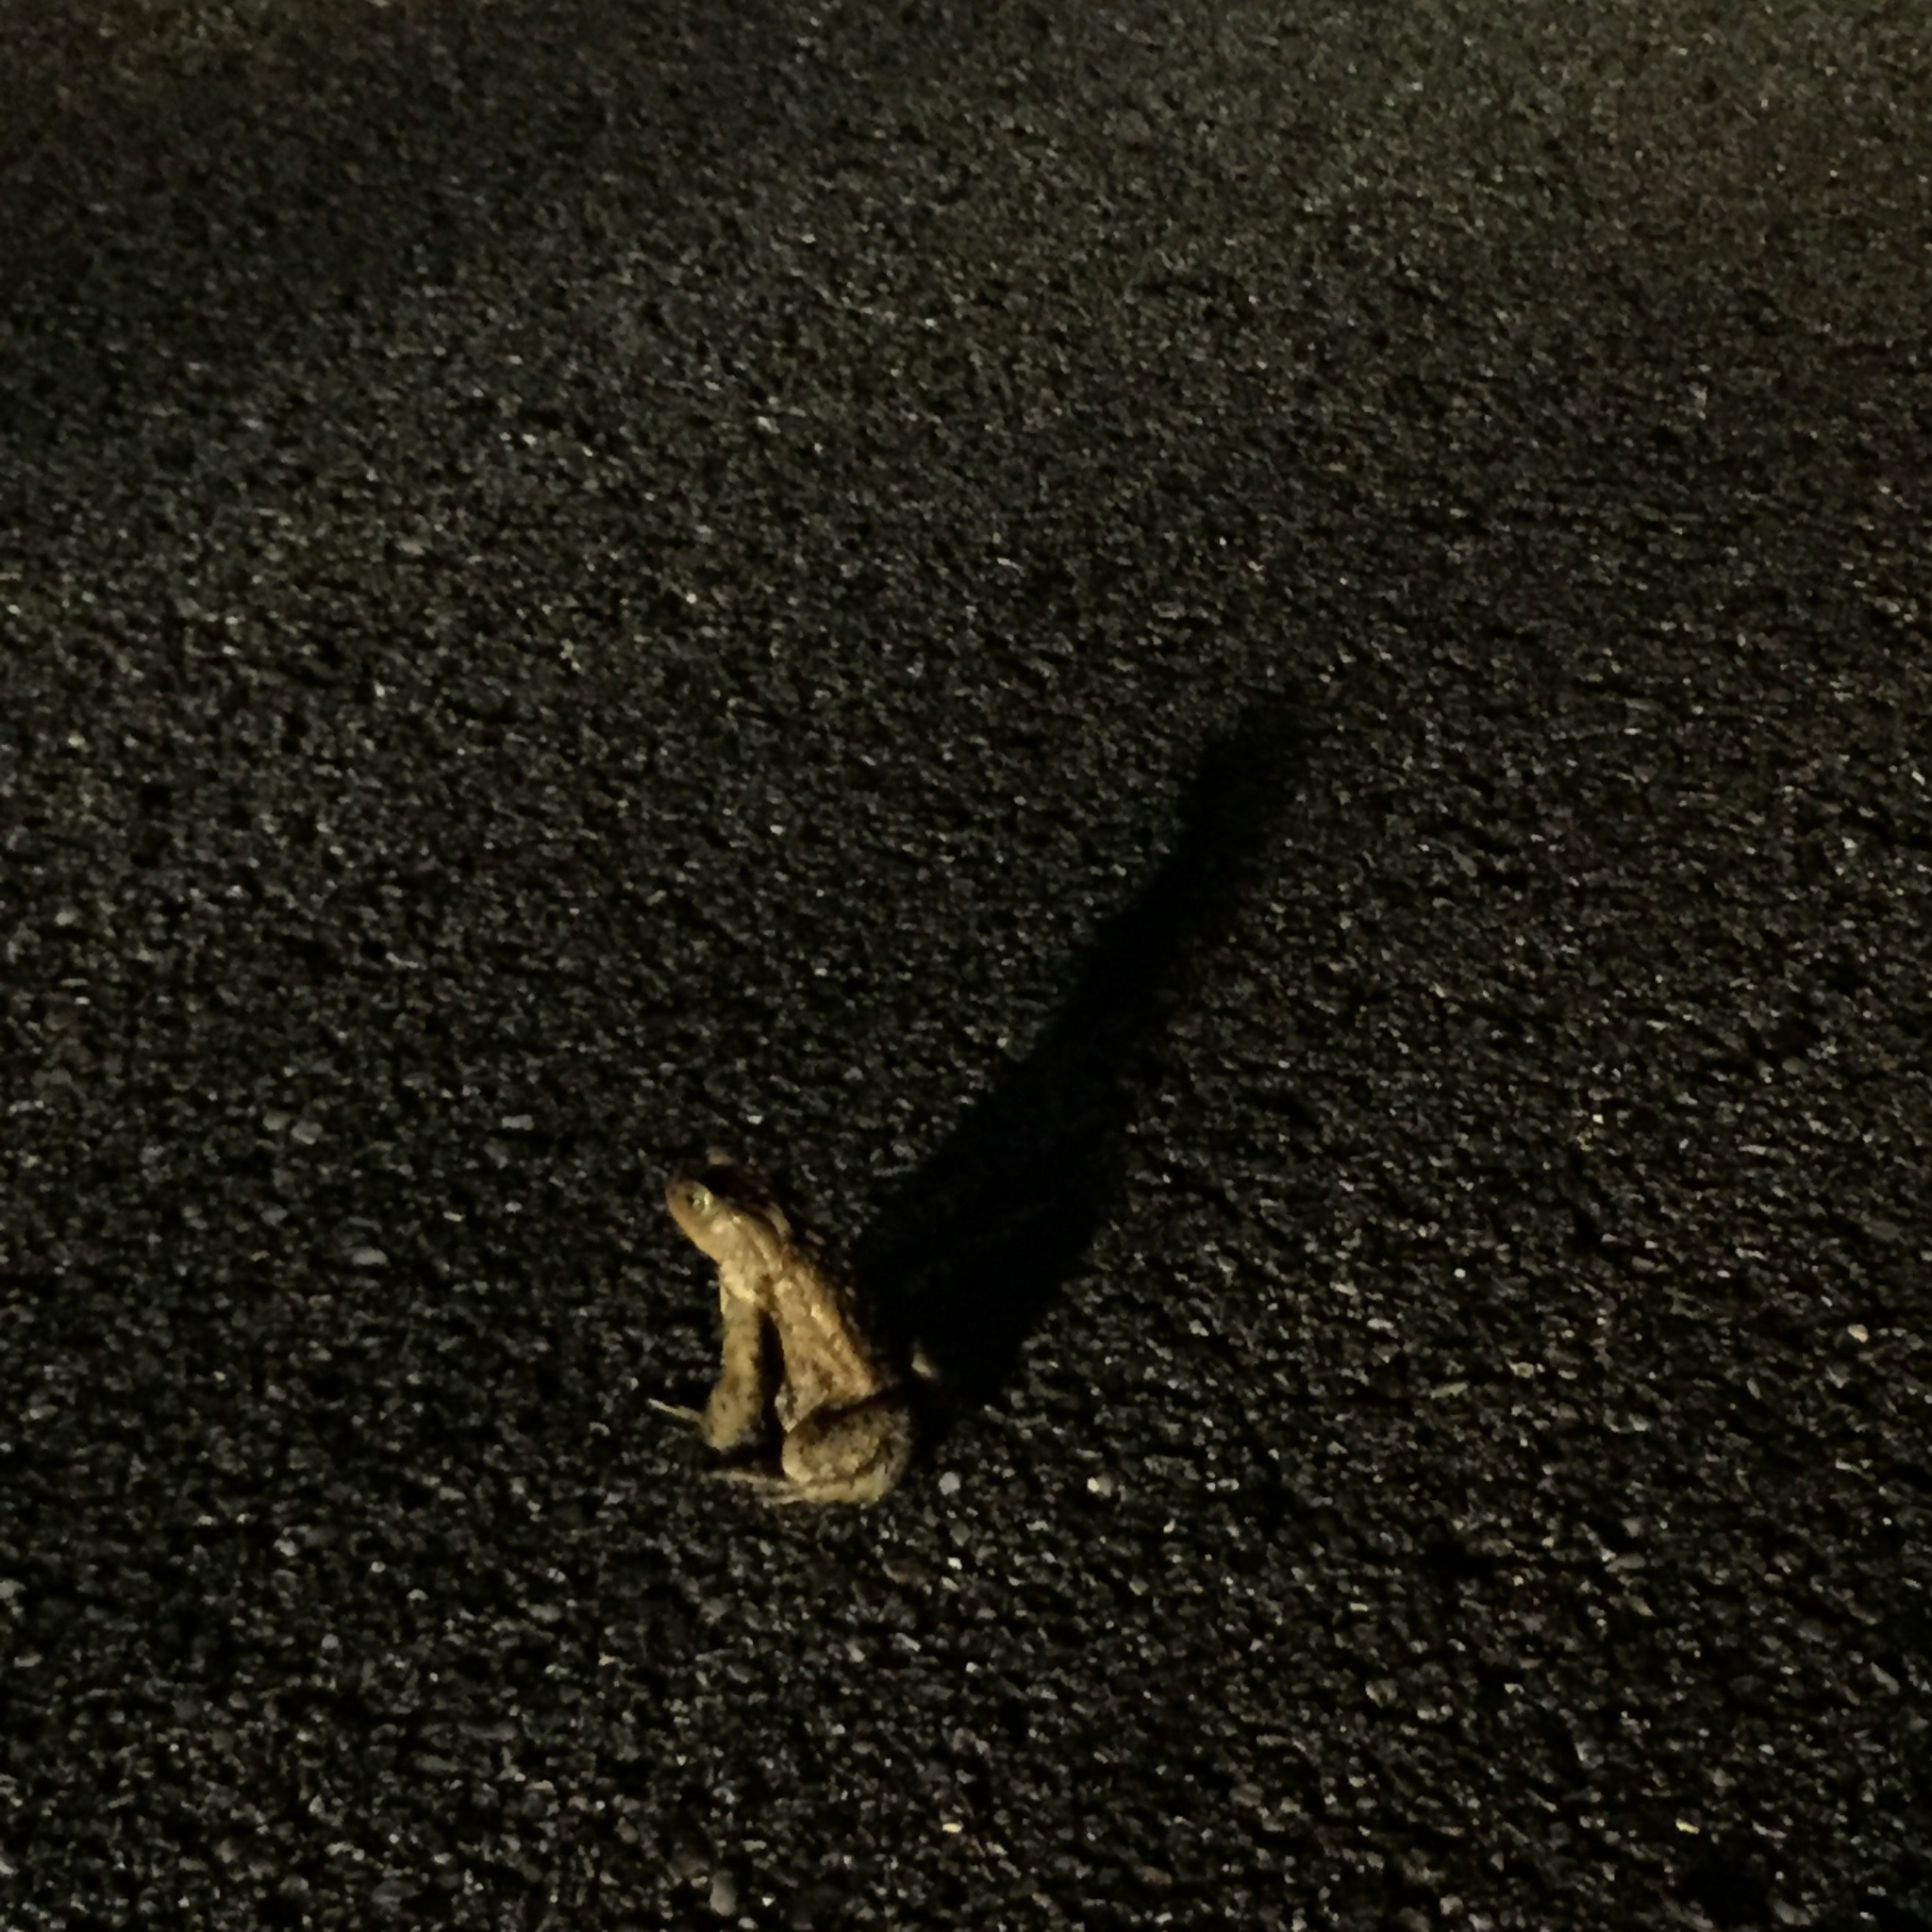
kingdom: Animalia
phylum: Chordata
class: Amphibia
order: Anura
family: Bufonidae
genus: Bufo
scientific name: Bufo bufo
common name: Common toad
